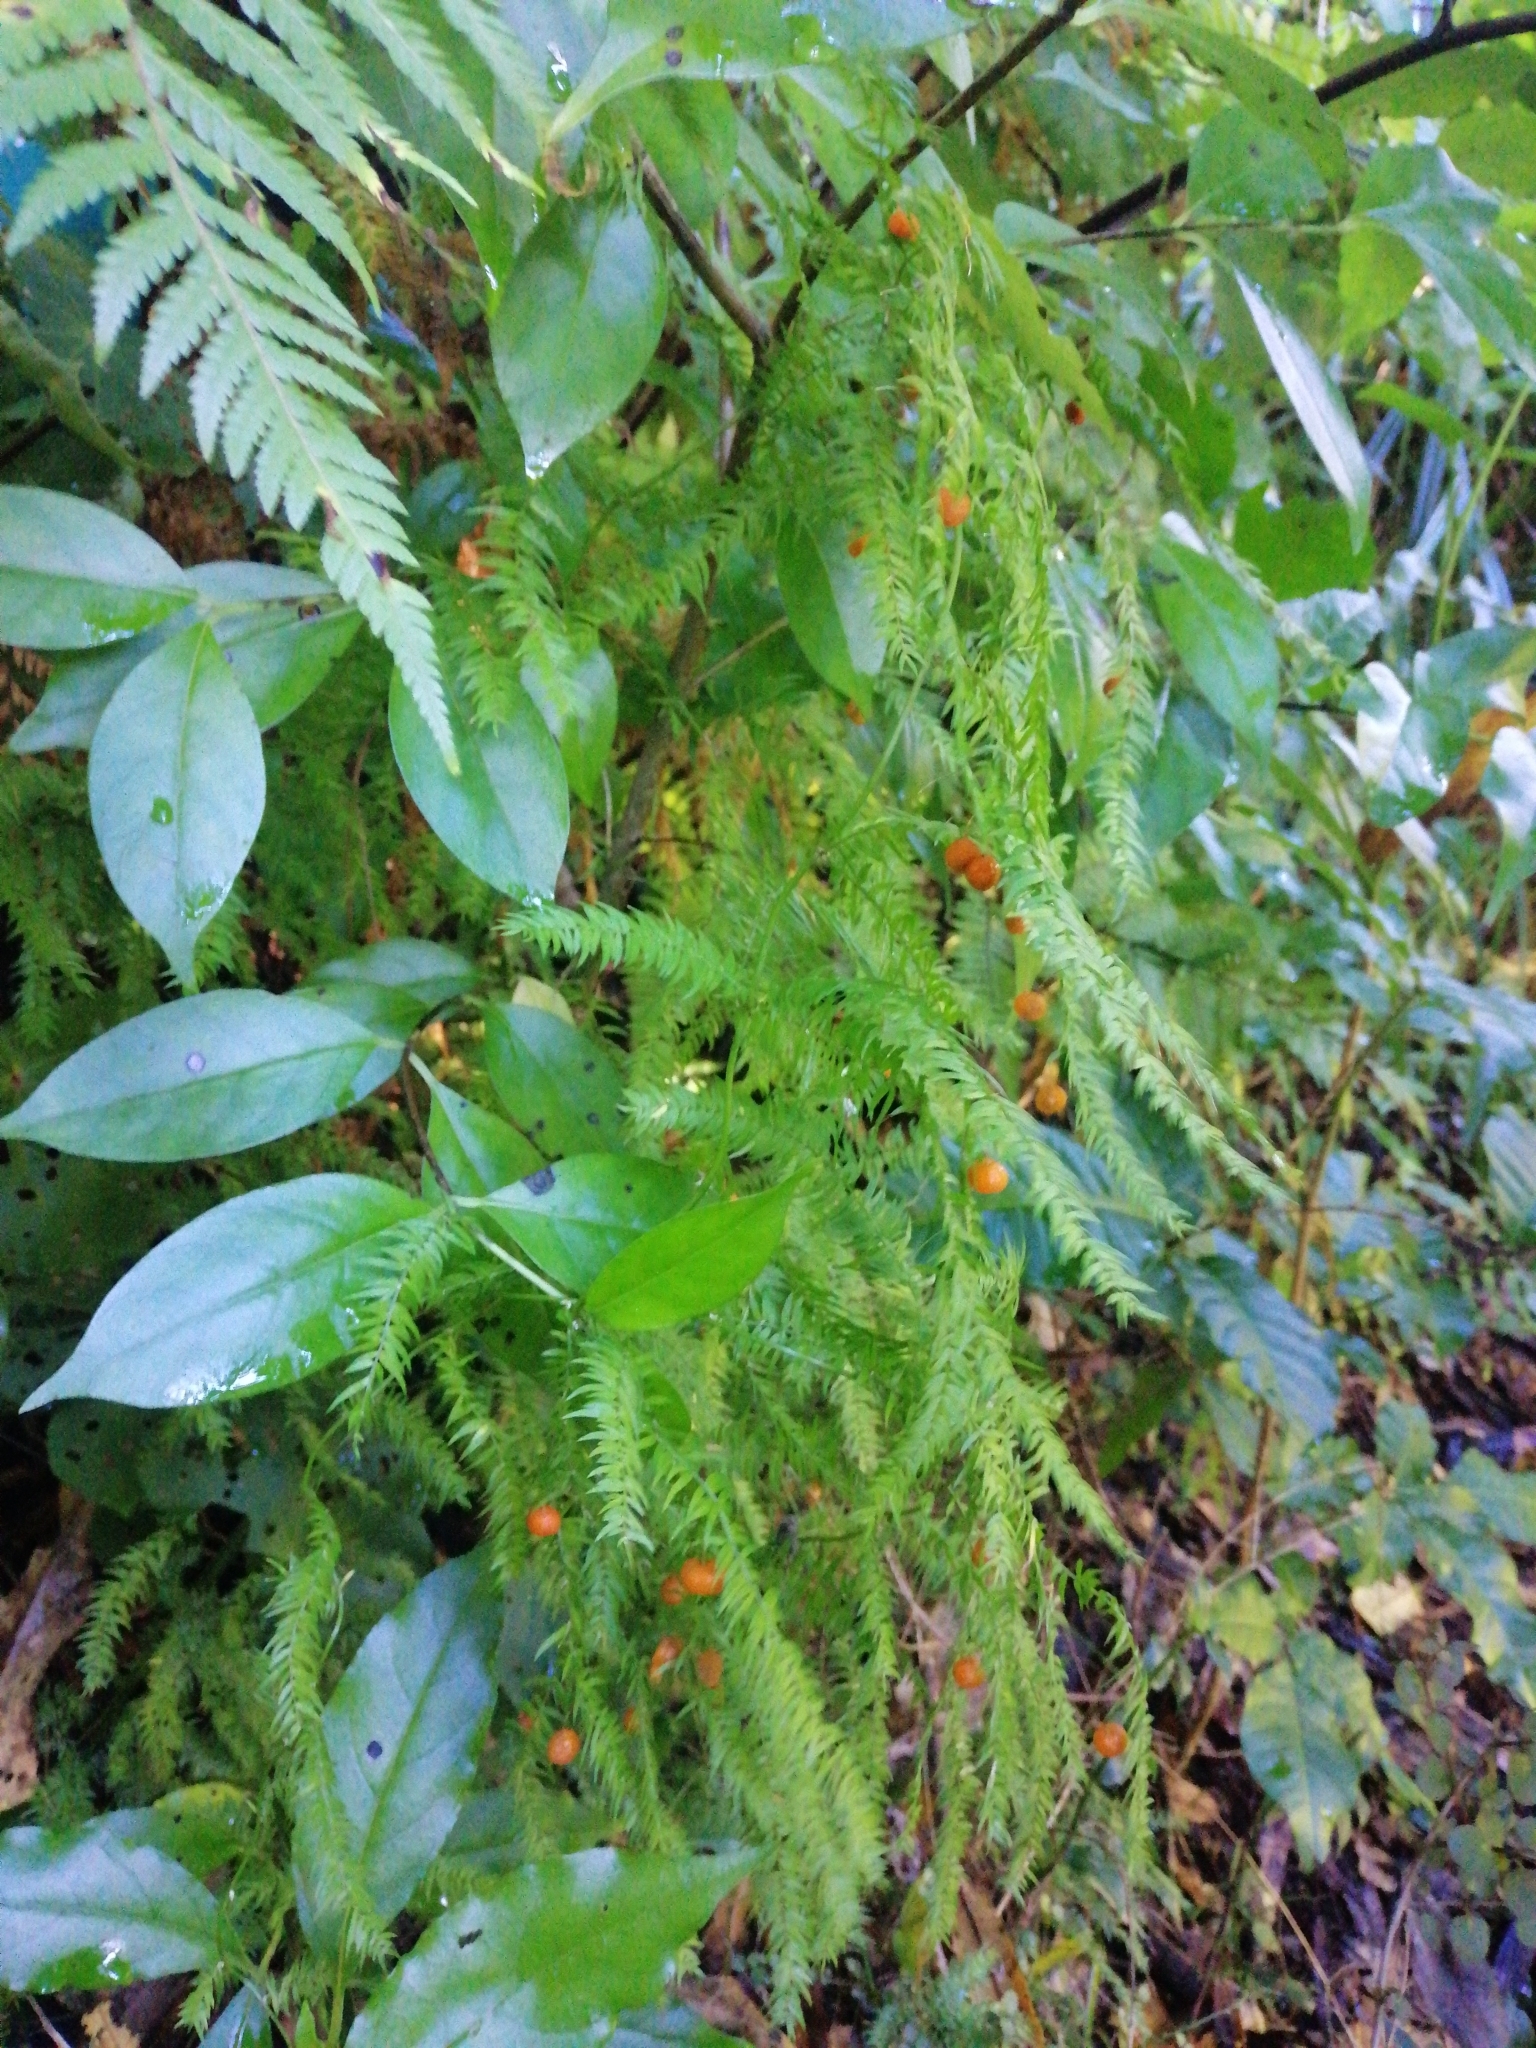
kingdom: Plantae
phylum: Tracheophyta
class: Liliopsida
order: Asparagales
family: Asparagaceae
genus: Asparagus
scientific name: Asparagus scandens
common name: Asparagus-fern
